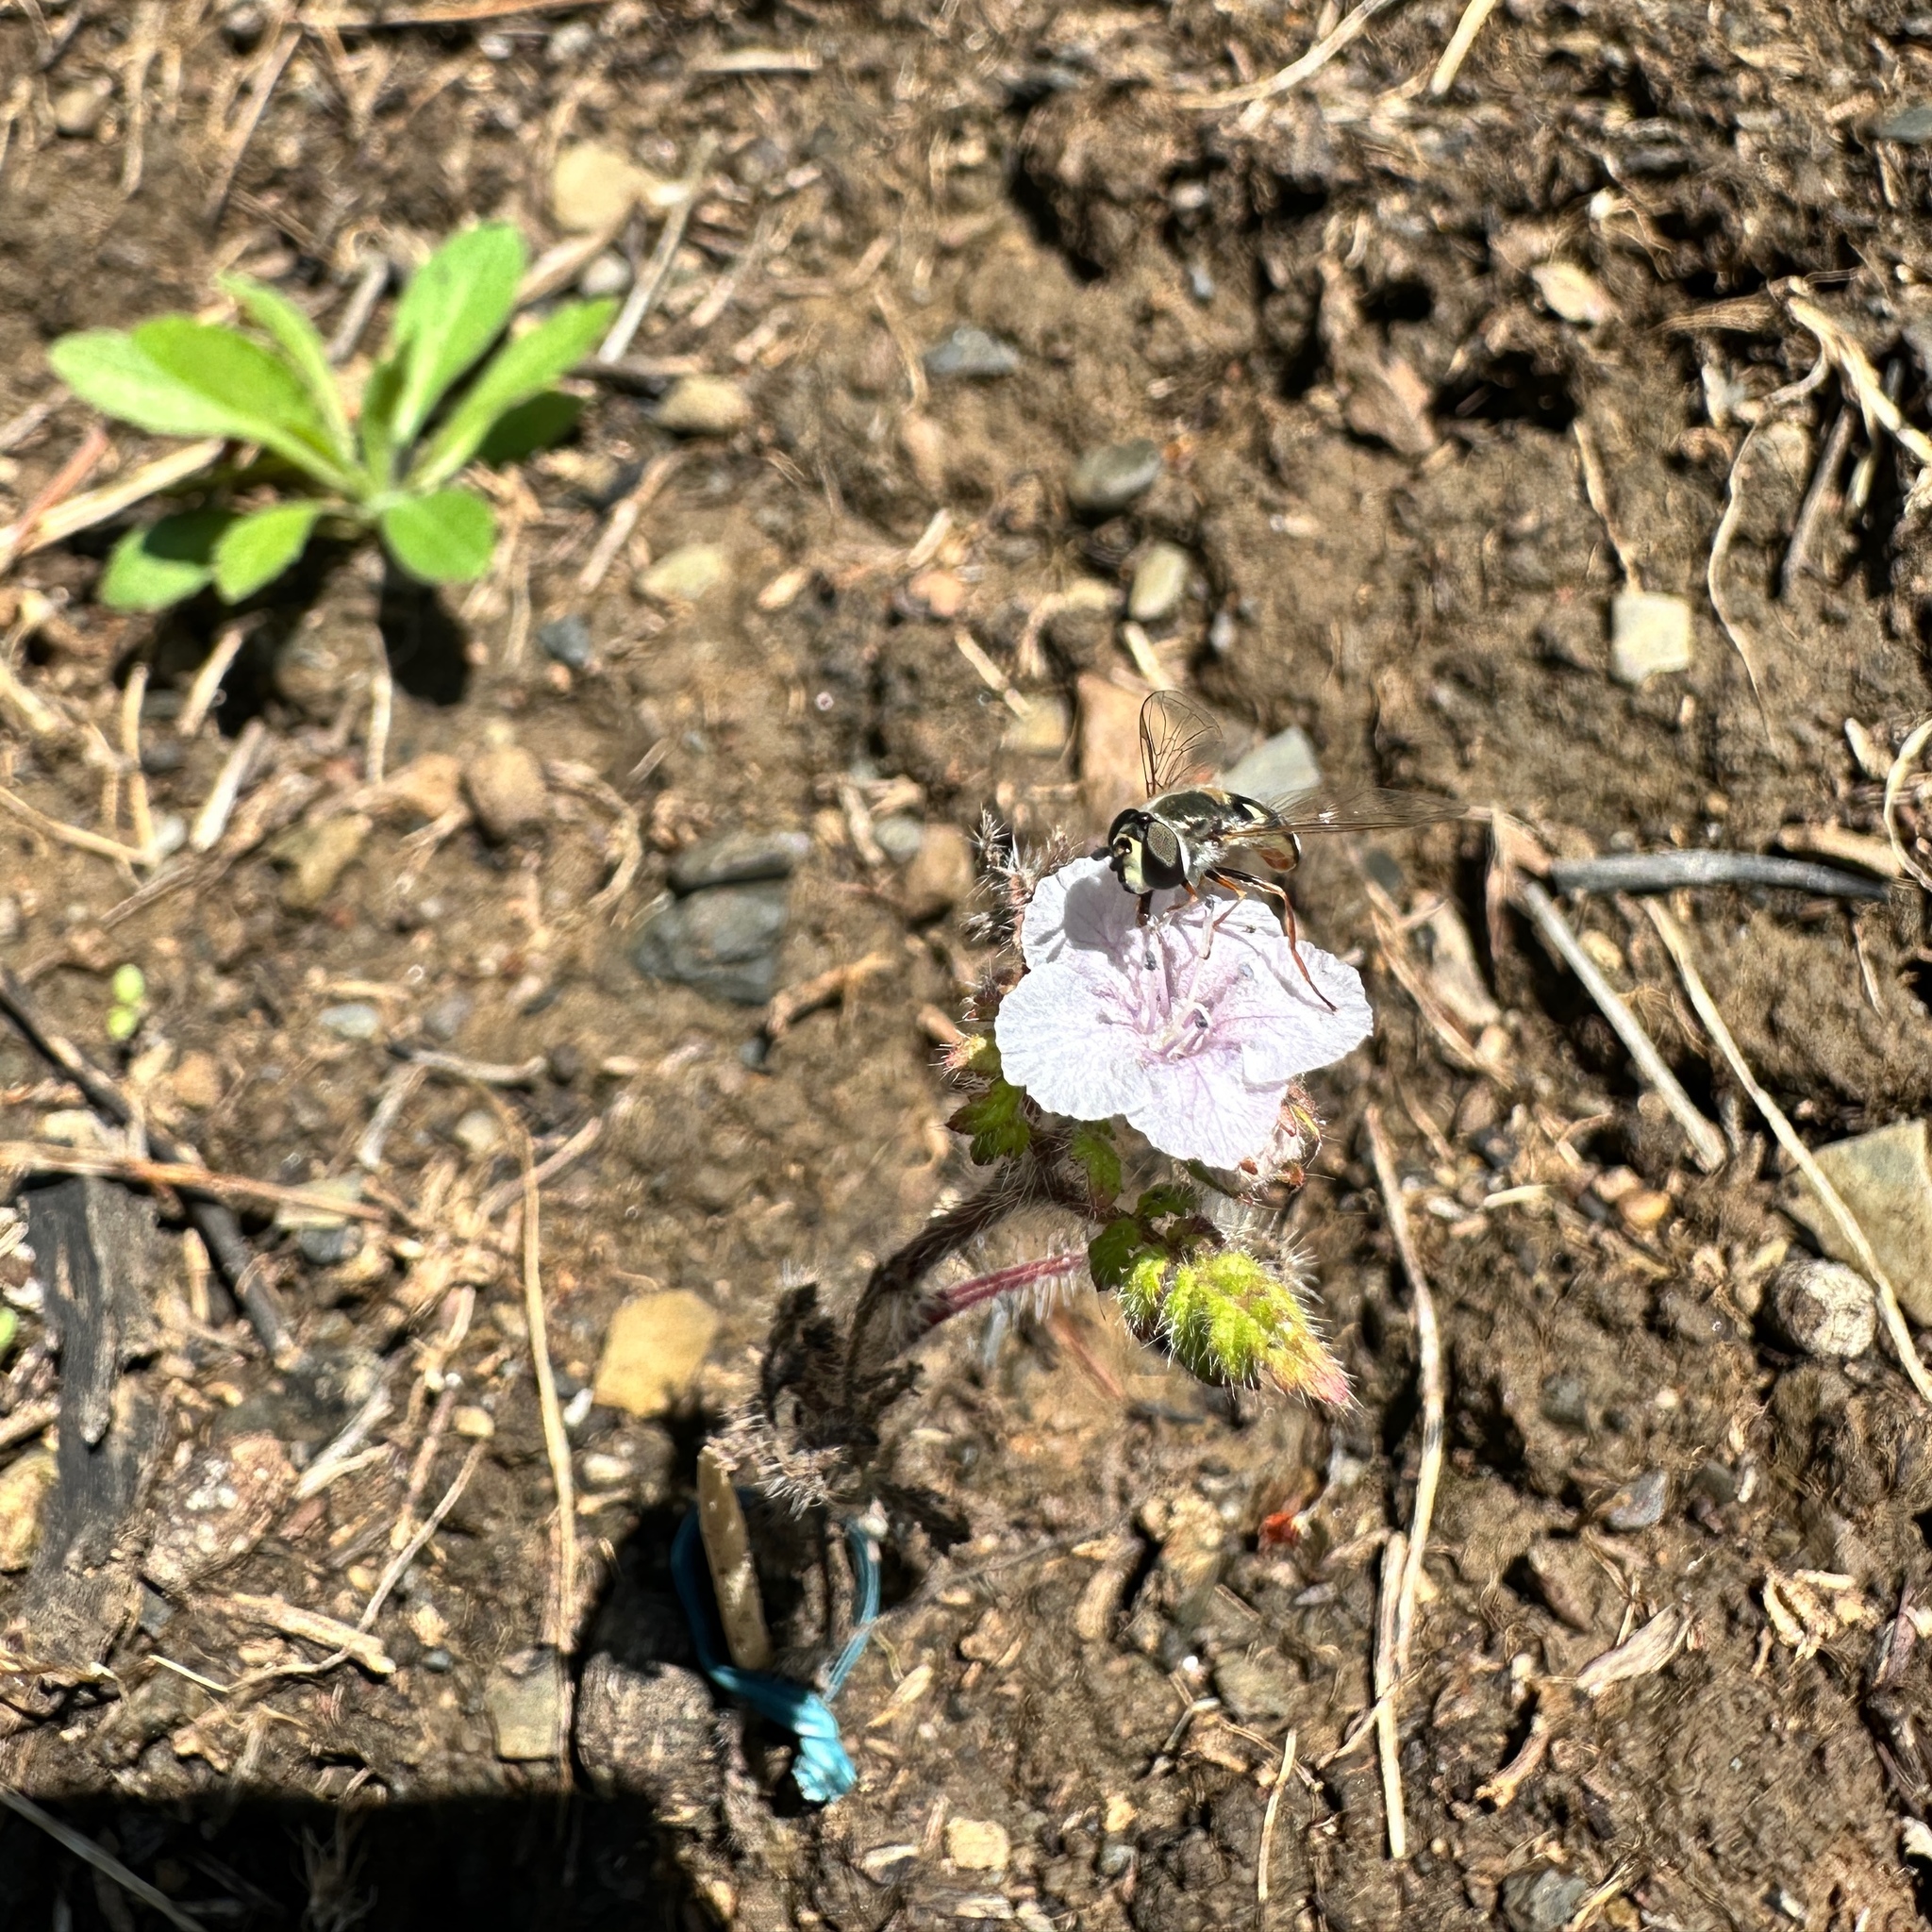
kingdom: Animalia
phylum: Arthropoda
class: Insecta
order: Diptera
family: Syrphidae
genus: Eupeodes
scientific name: Eupeodes volucris
